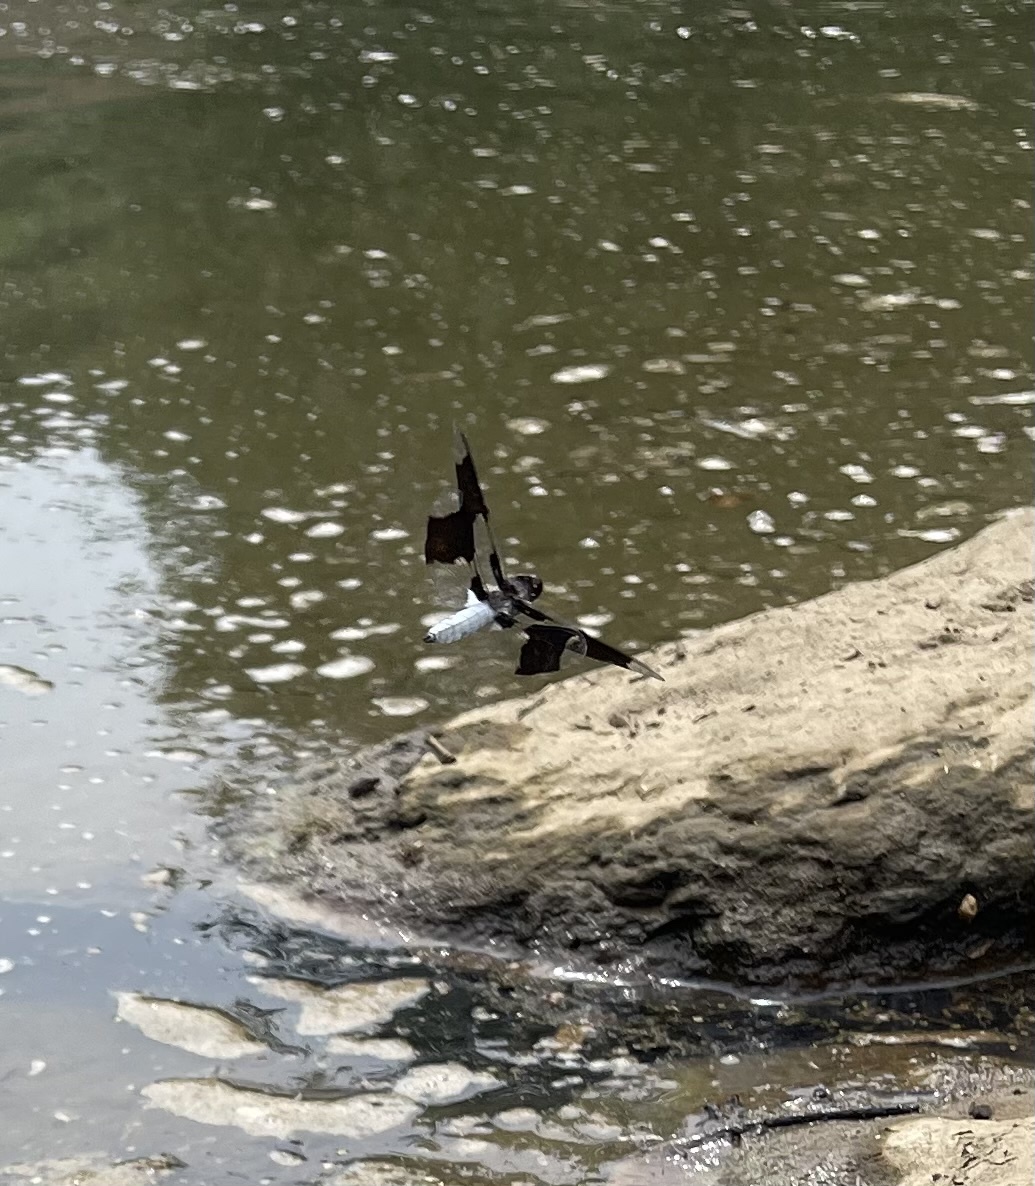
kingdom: Animalia
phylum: Arthropoda
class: Insecta
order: Odonata
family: Libellulidae
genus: Plathemis
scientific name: Plathemis lydia
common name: Common whitetail
